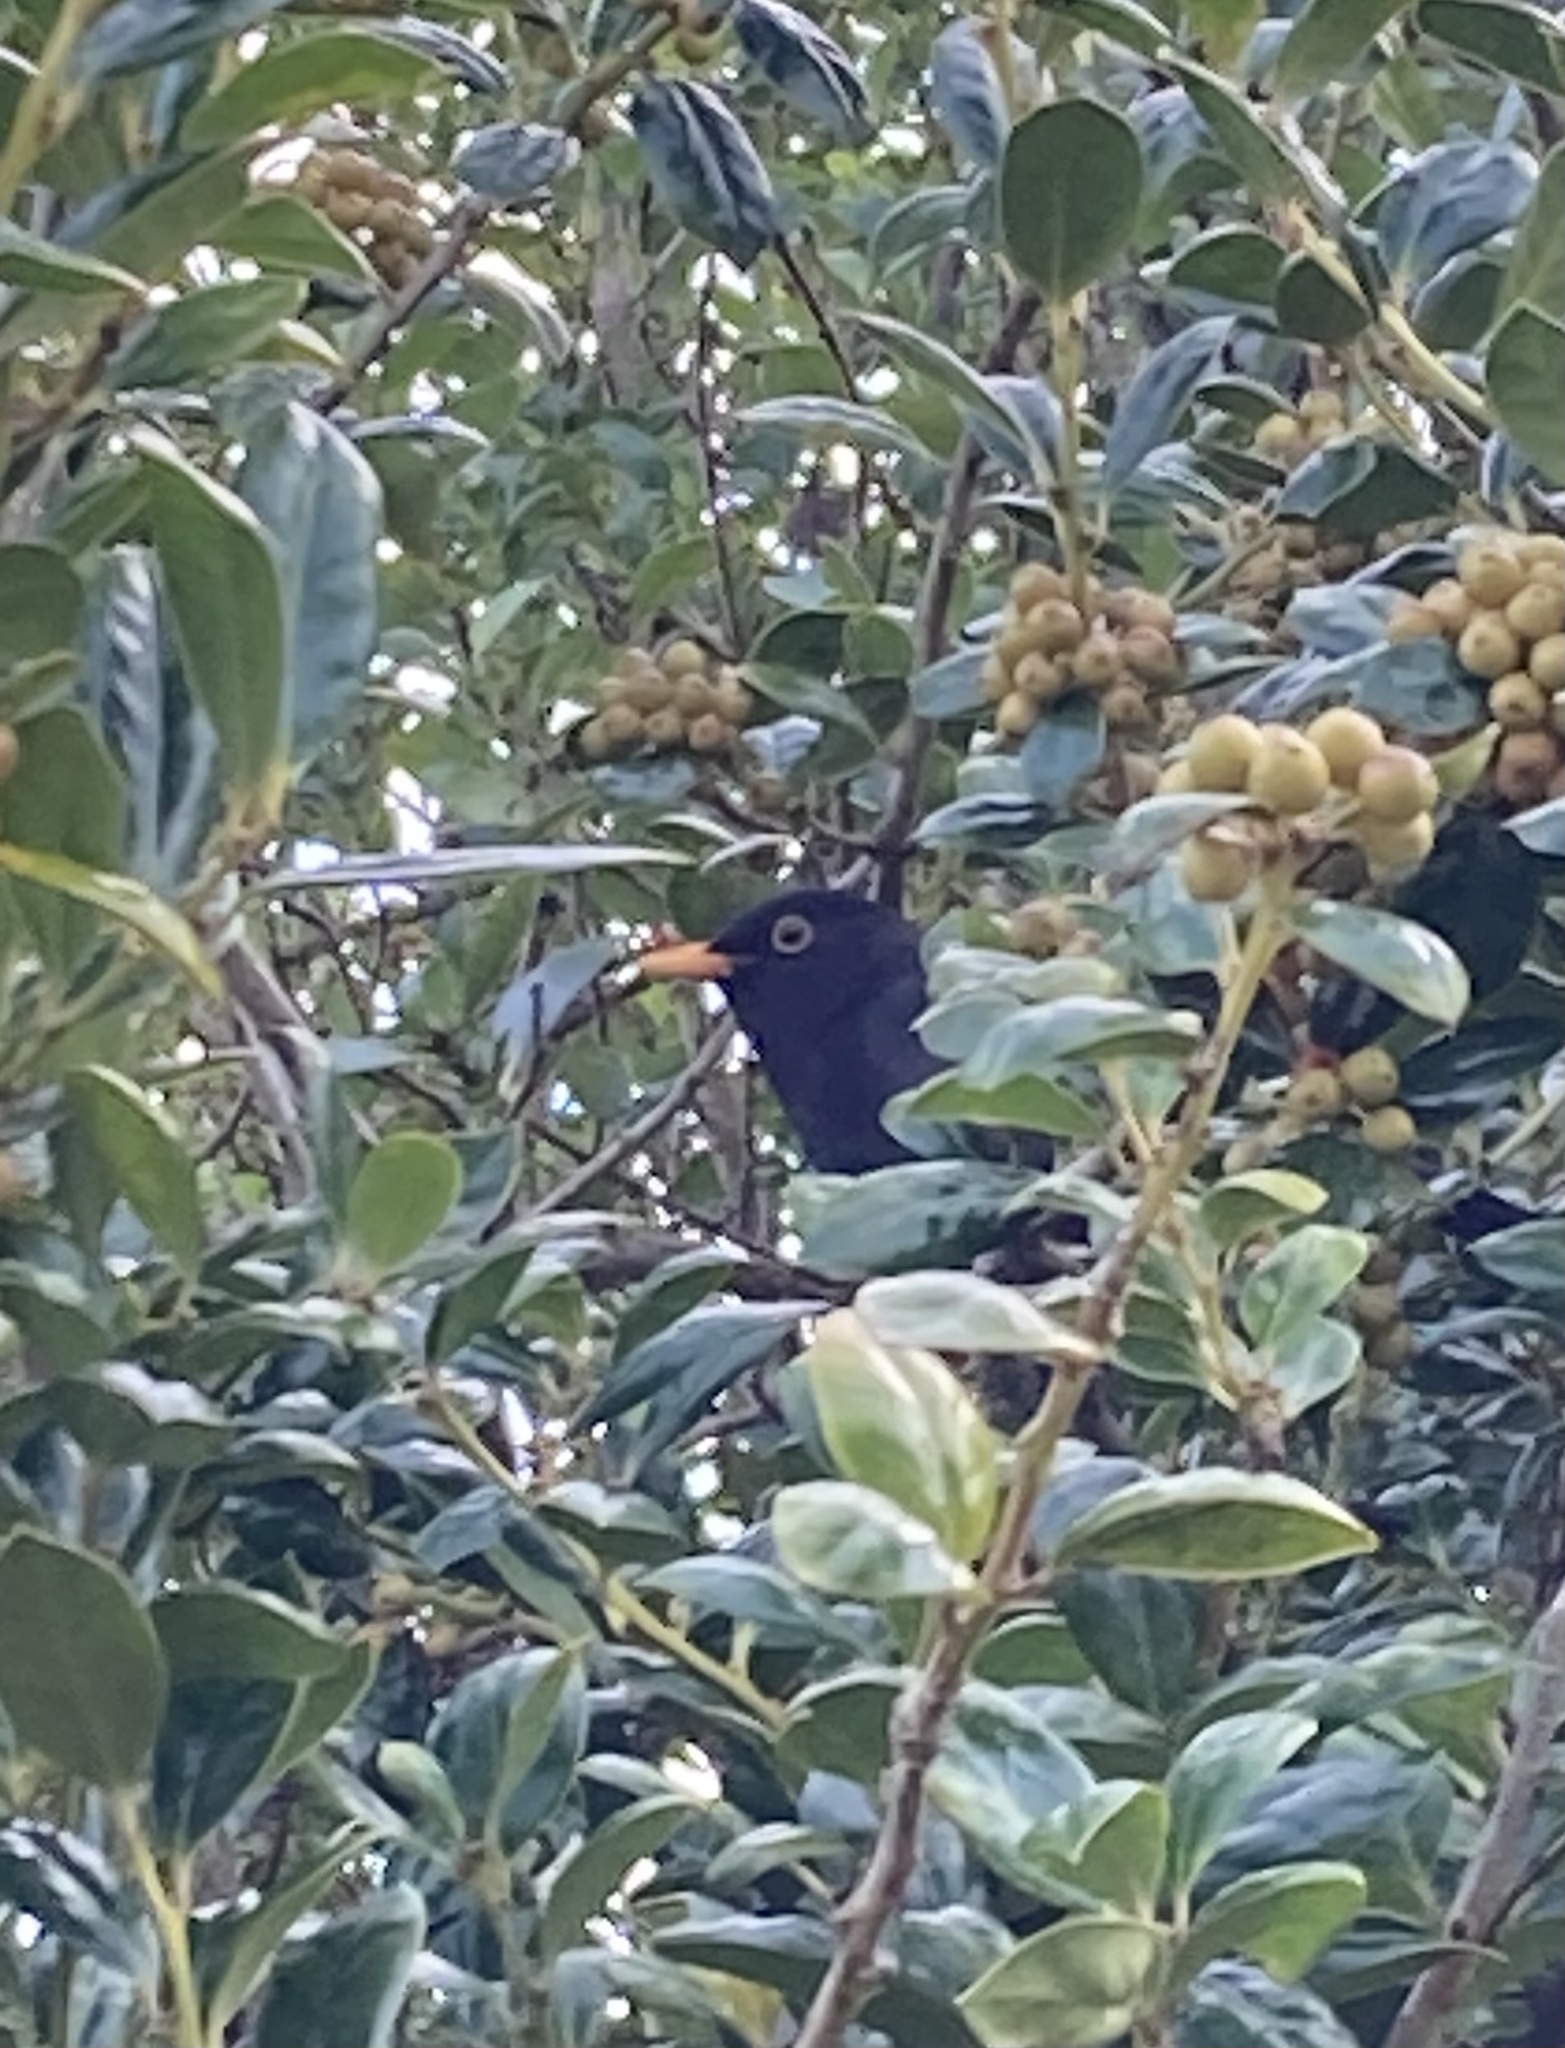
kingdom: Animalia
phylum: Chordata
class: Aves
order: Passeriformes
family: Turdidae
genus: Turdus
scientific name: Turdus merula
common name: Common blackbird
